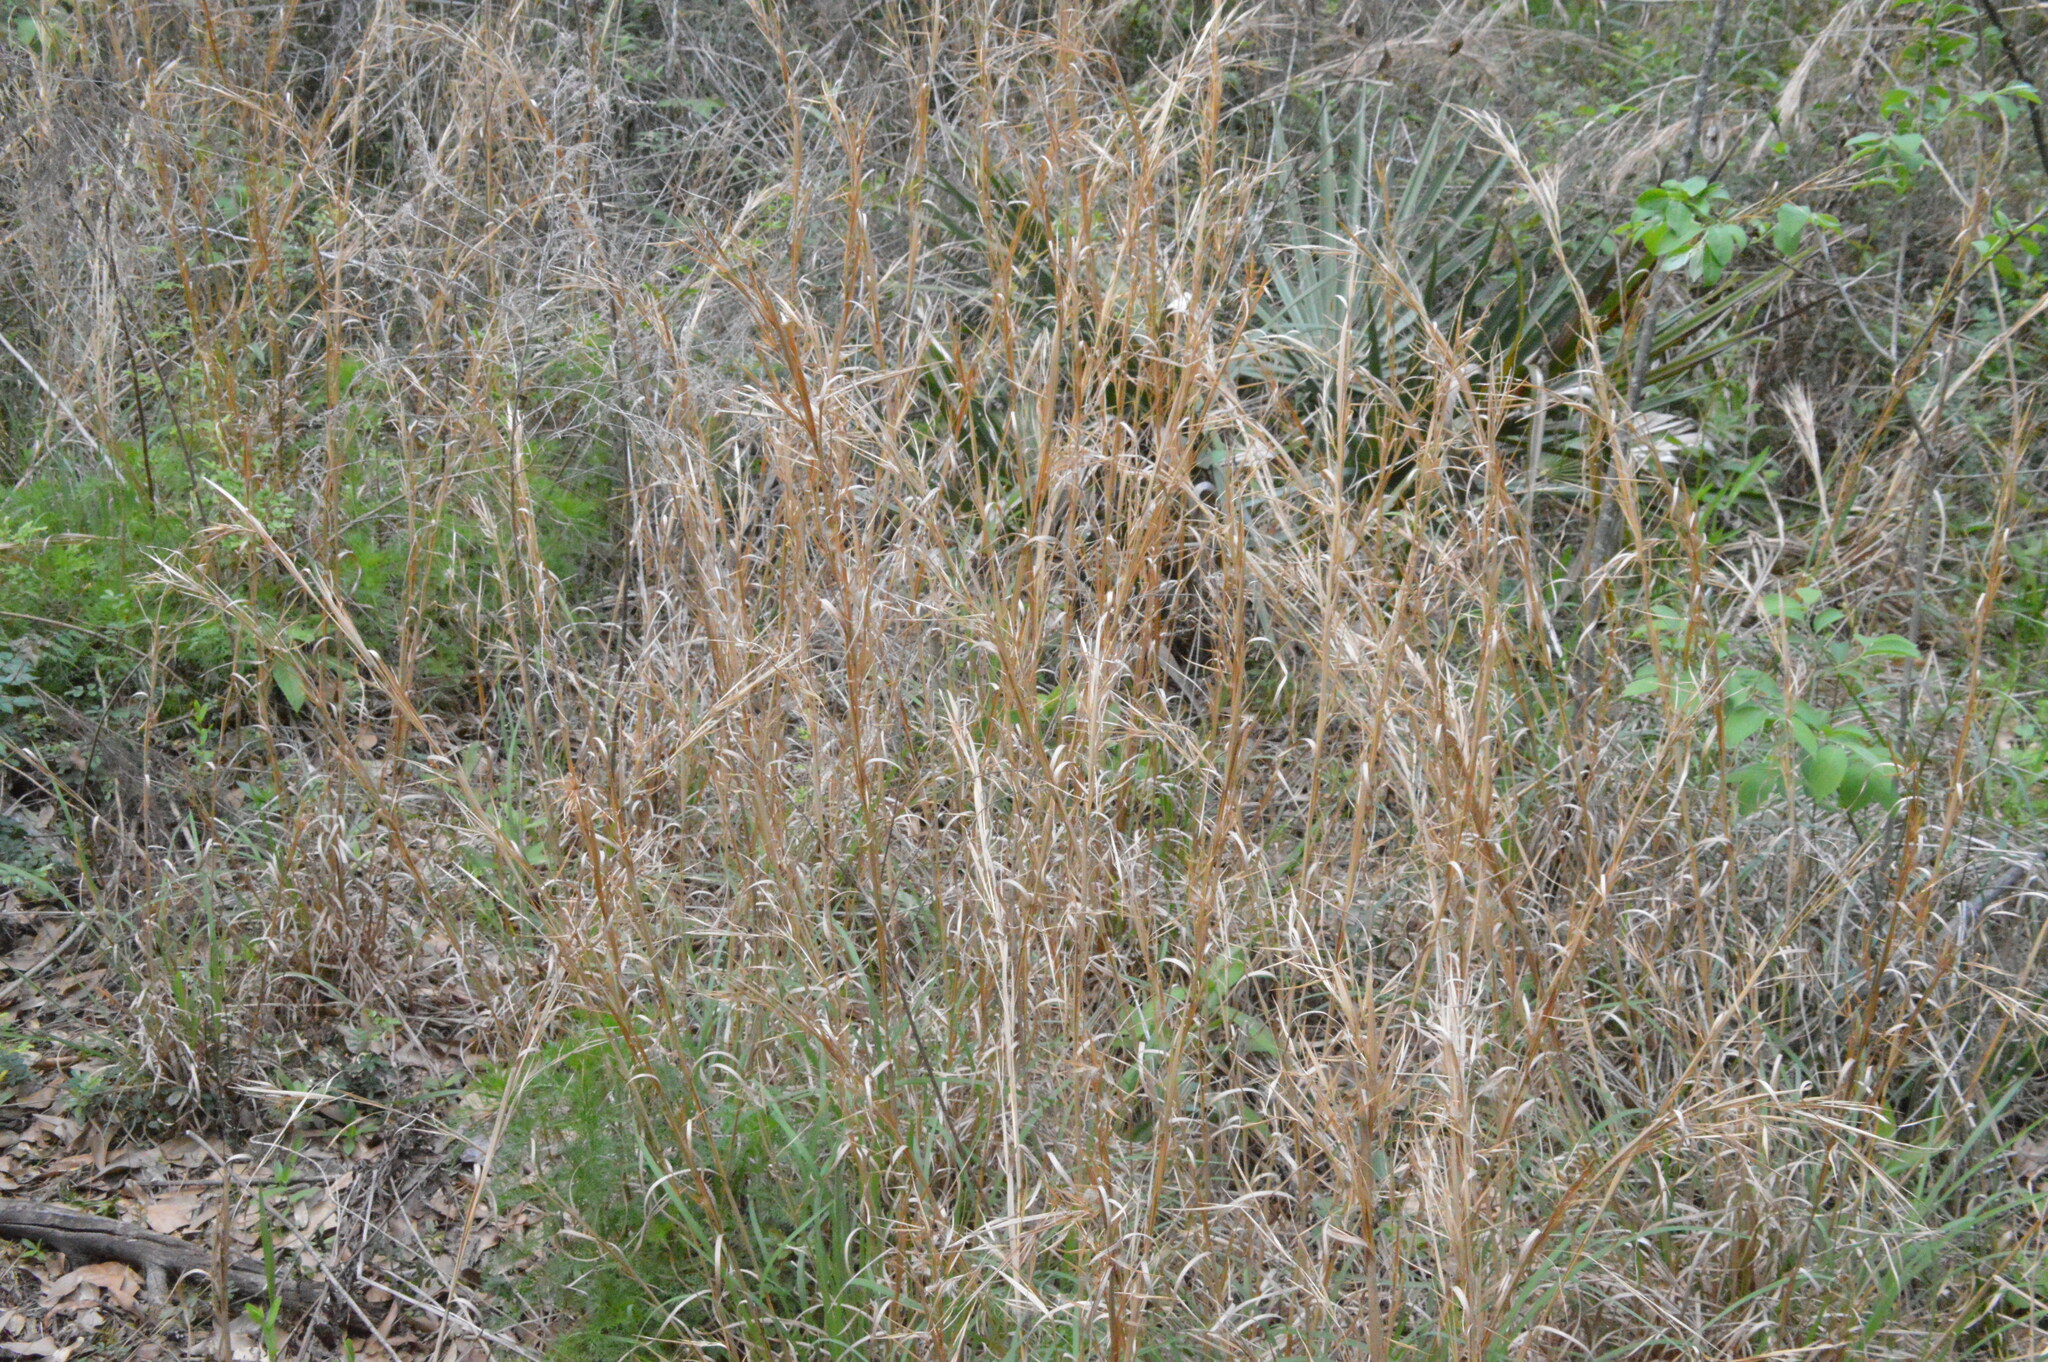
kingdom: Plantae
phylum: Tracheophyta
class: Liliopsida
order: Poales
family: Poaceae
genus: Andropogon
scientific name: Andropogon virginicus
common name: Broomsedge bluestem
